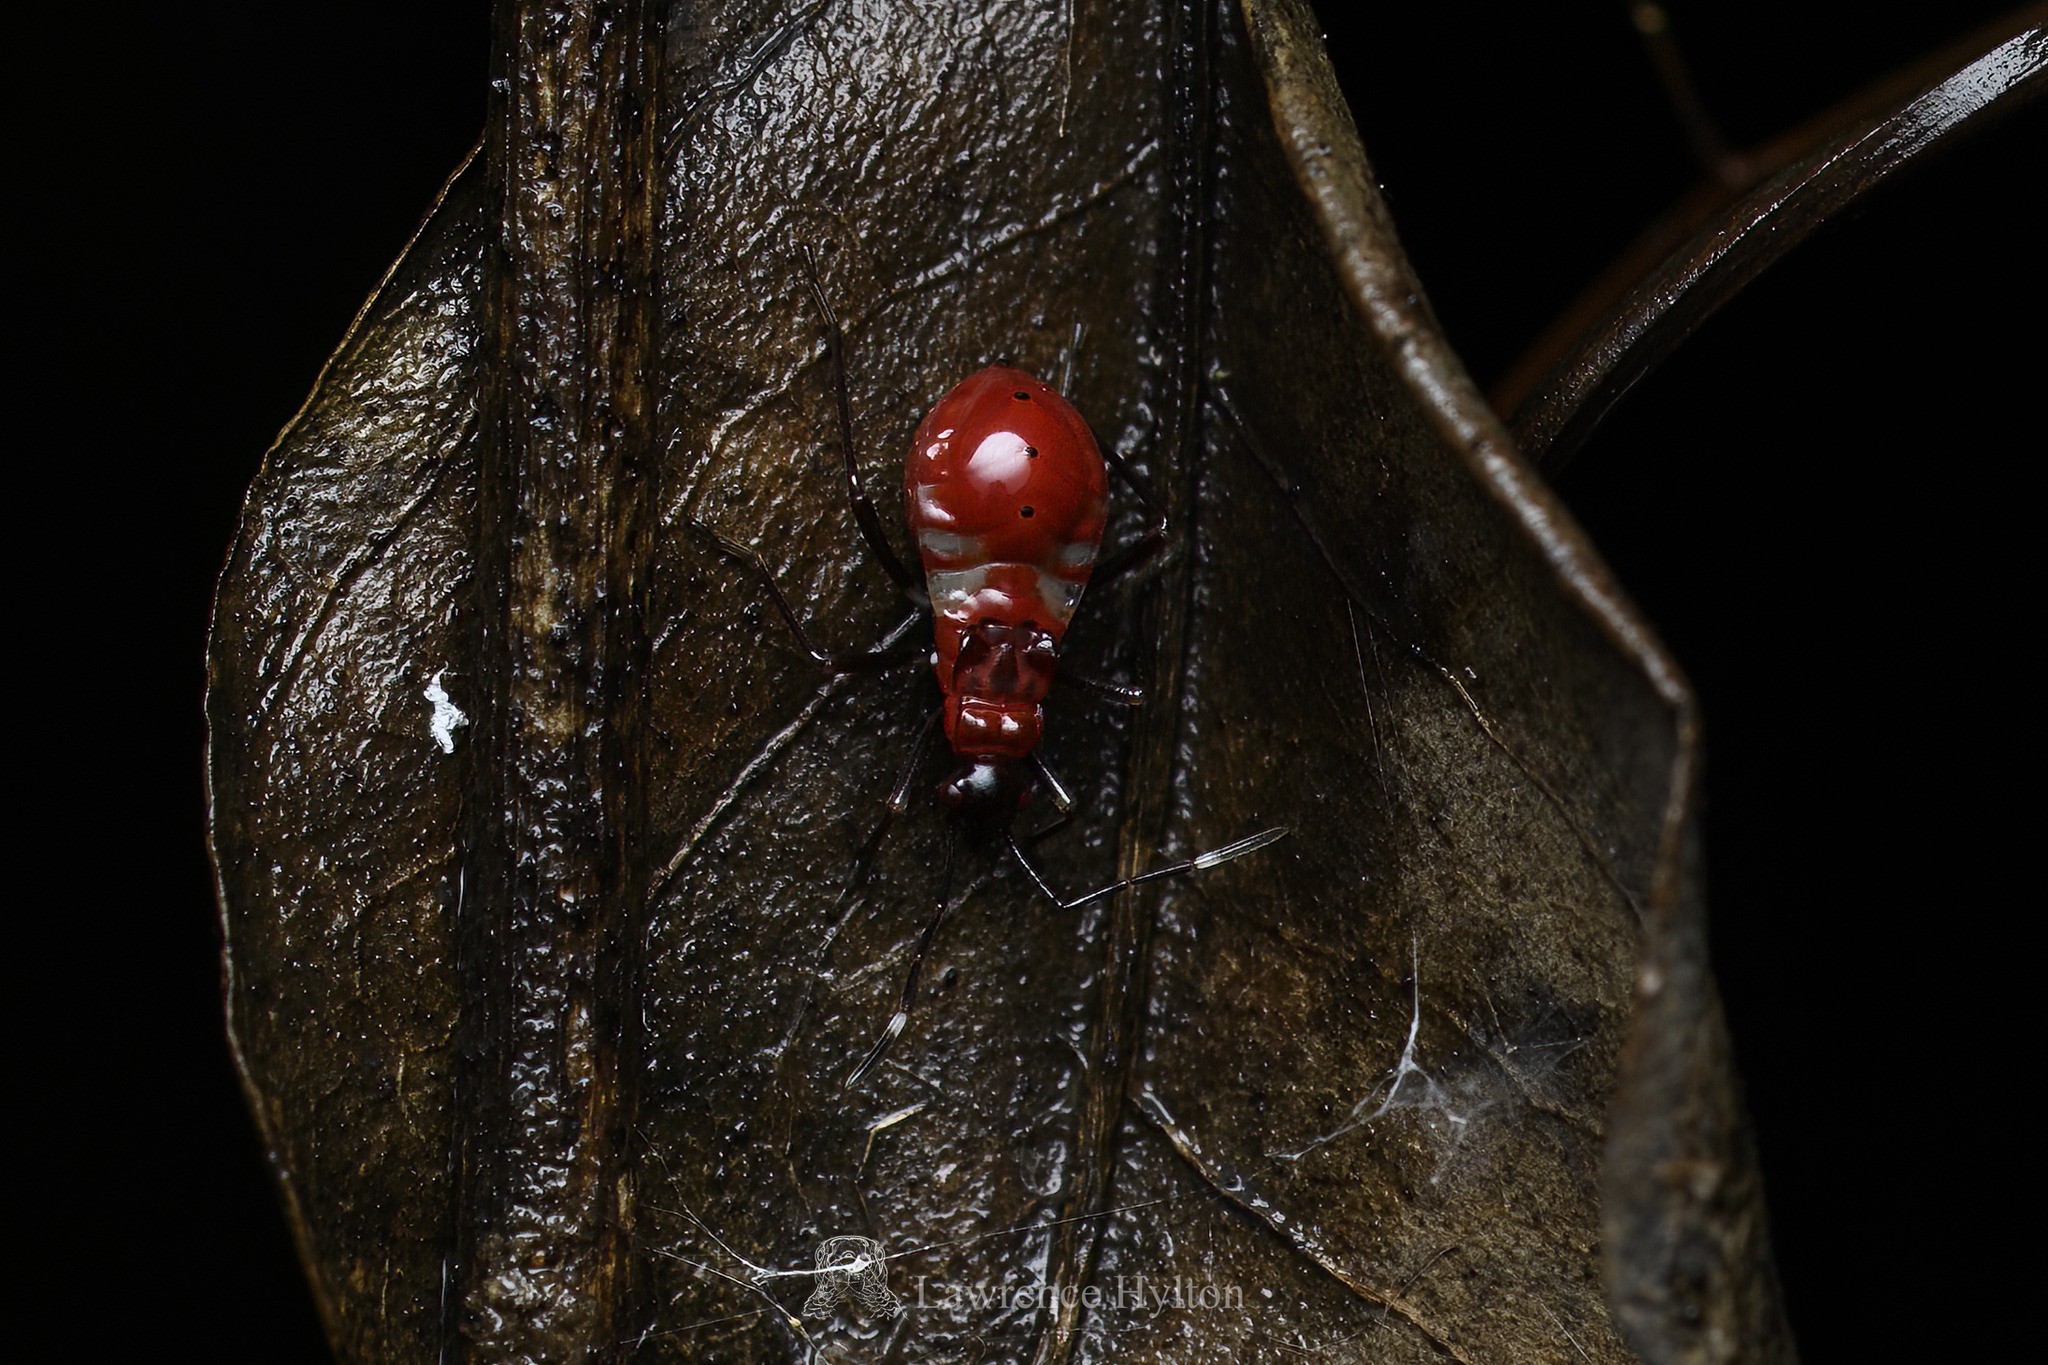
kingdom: Animalia
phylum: Arthropoda
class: Insecta
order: Hemiptera
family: Pyrrhocoridae
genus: Dindymus
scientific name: Dindymus
